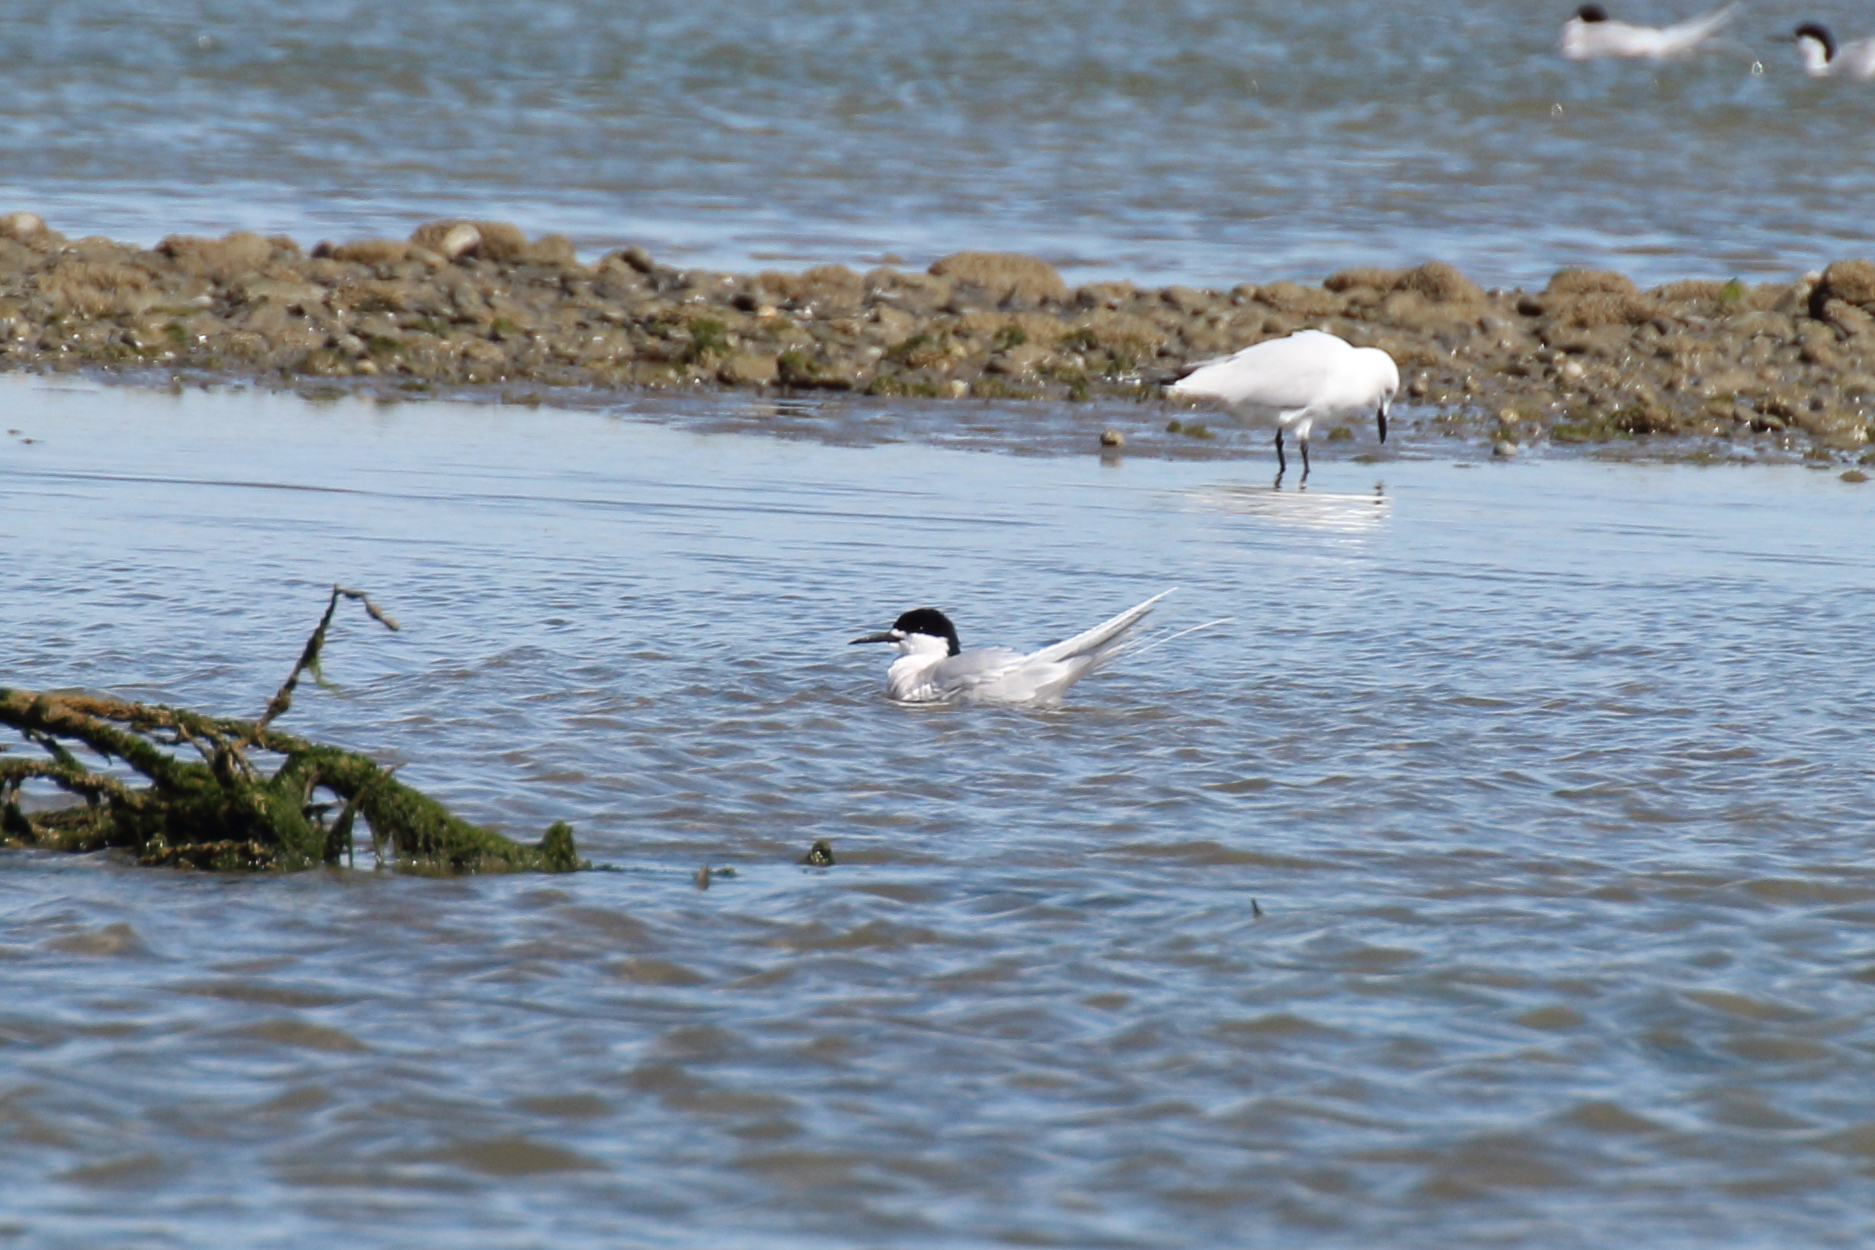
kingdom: Animalia
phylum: Chordata
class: Aves
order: Charadriiformes
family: Laridae
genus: Sterna
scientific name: Sterna striata
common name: White-fronted tern
